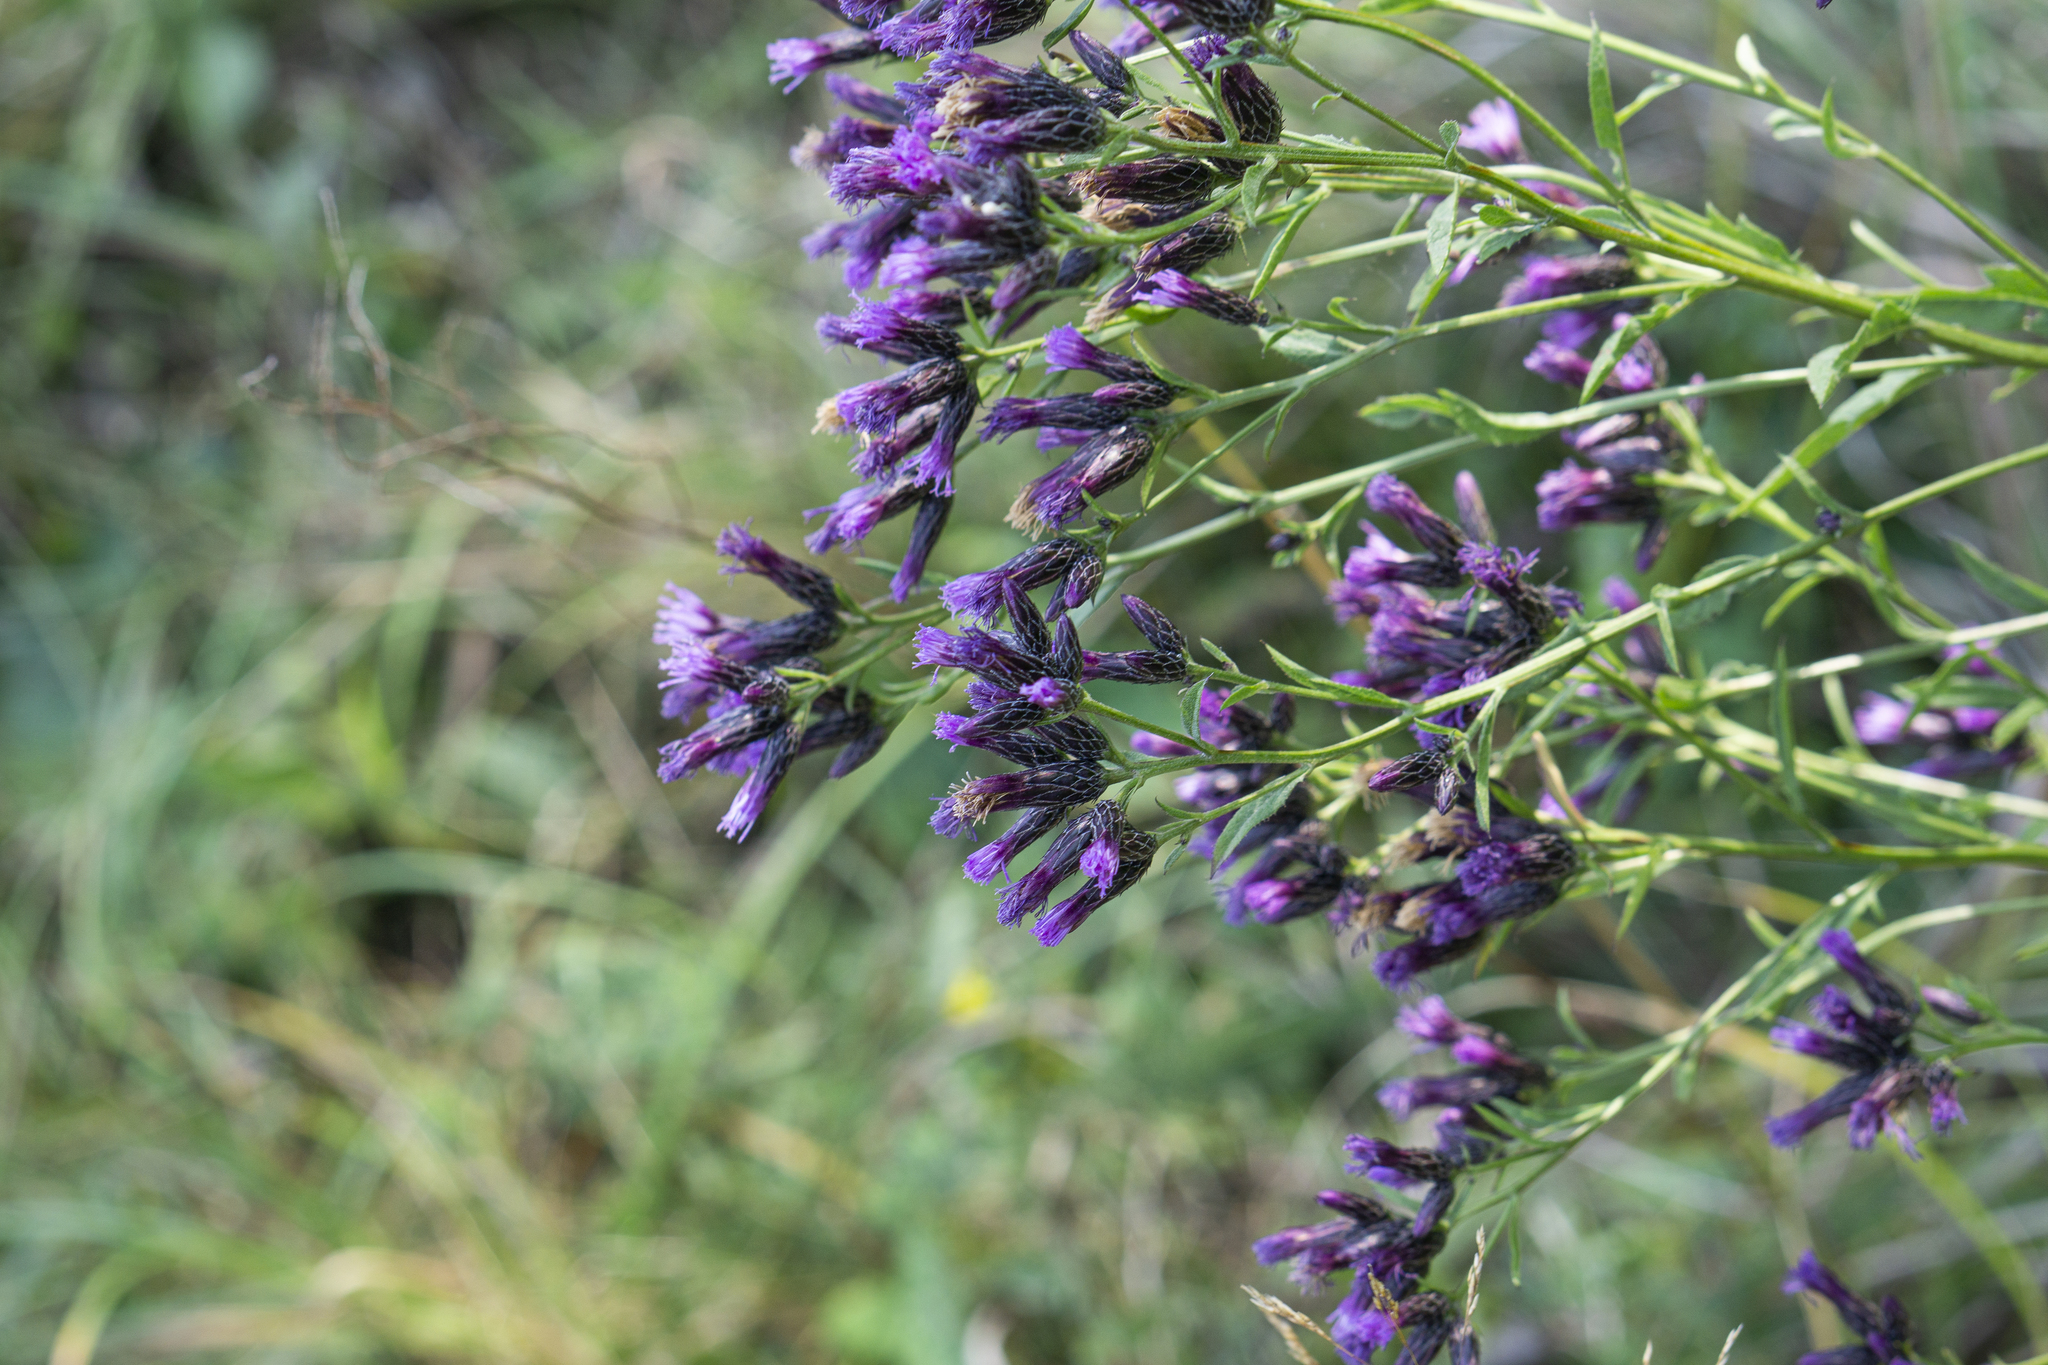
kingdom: Plantae
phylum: Tracheophyta
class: Magnoliopsida
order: Asterales
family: Asteraceae
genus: Serratula
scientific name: Serratula tinctoria
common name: Saw-wort
